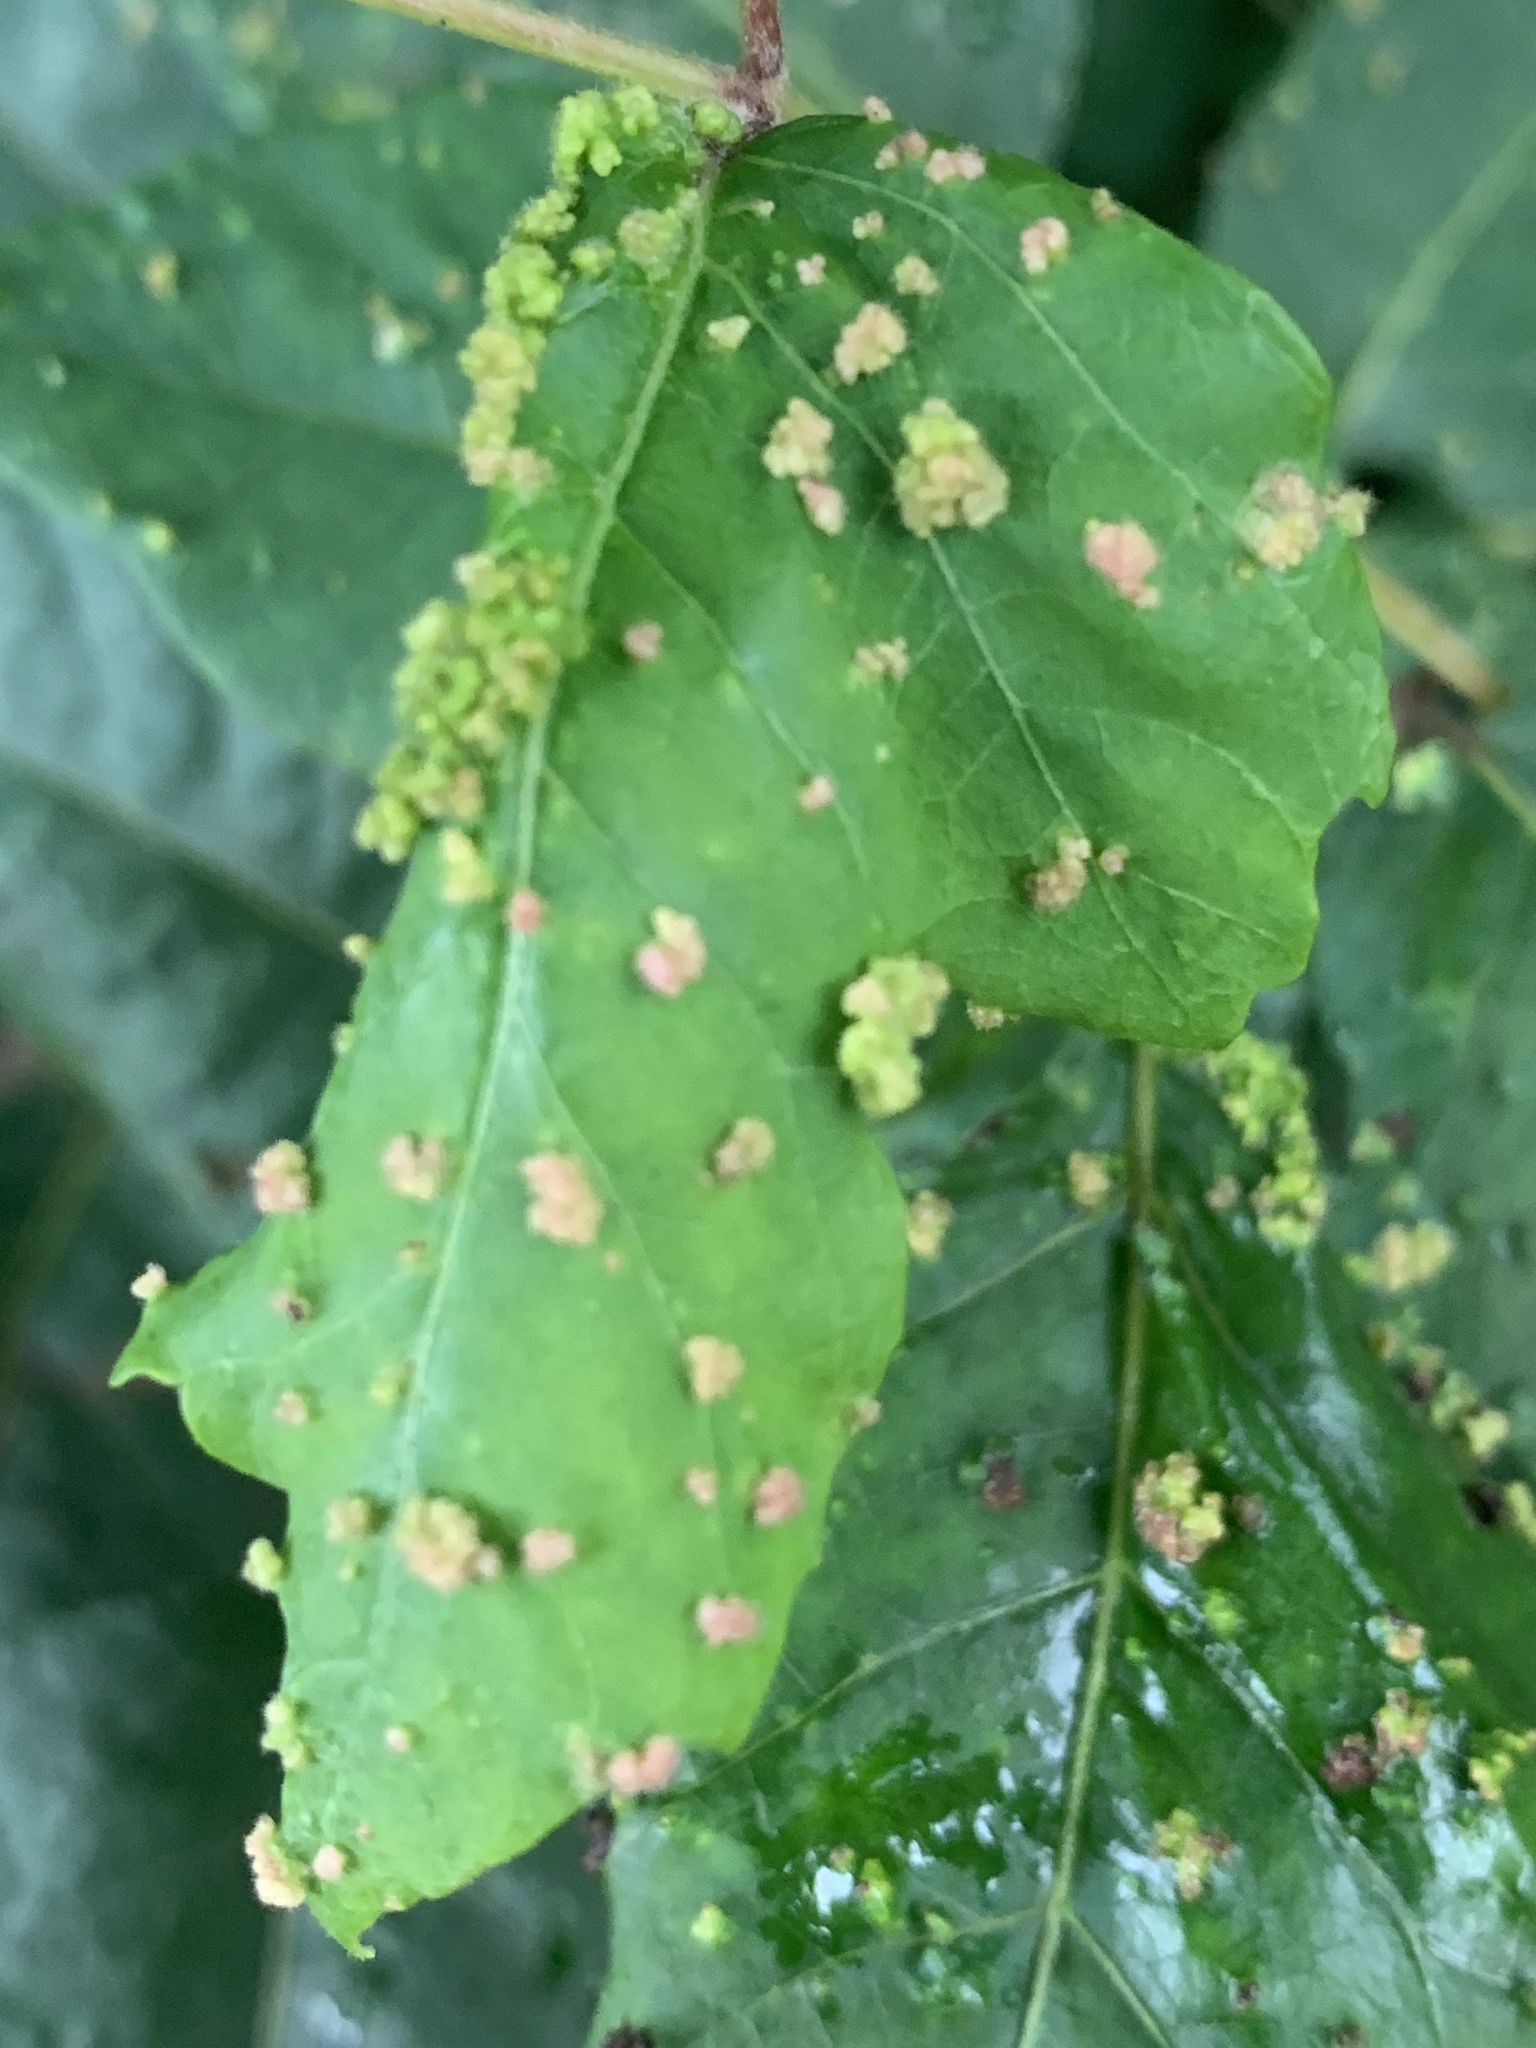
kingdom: Animalia
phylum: Arthropoda
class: Arachnida
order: Trombidiformes
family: Eriophyidae
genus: Aculops
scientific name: Aculops
